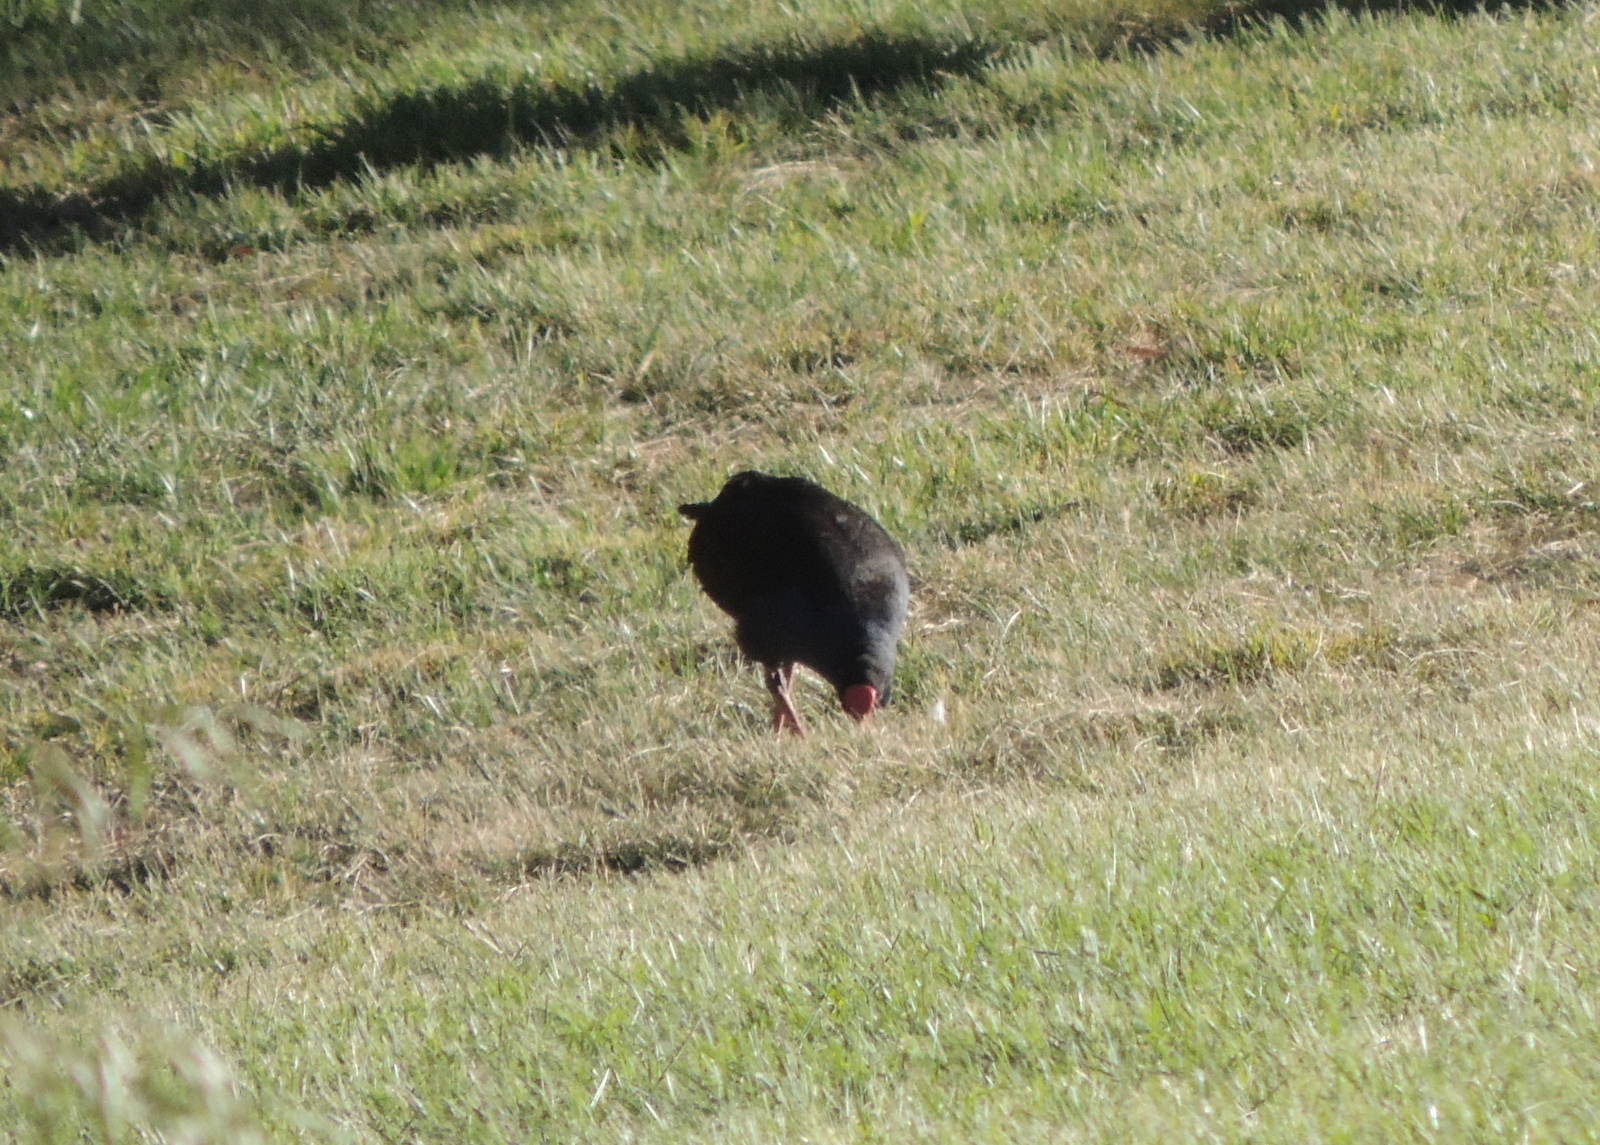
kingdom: Animalia
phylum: Chordata
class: Aves
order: Gruiformes
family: Rallidae
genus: Porphyrio
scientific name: Porphyrio melanotus
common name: Australasian swamphen
